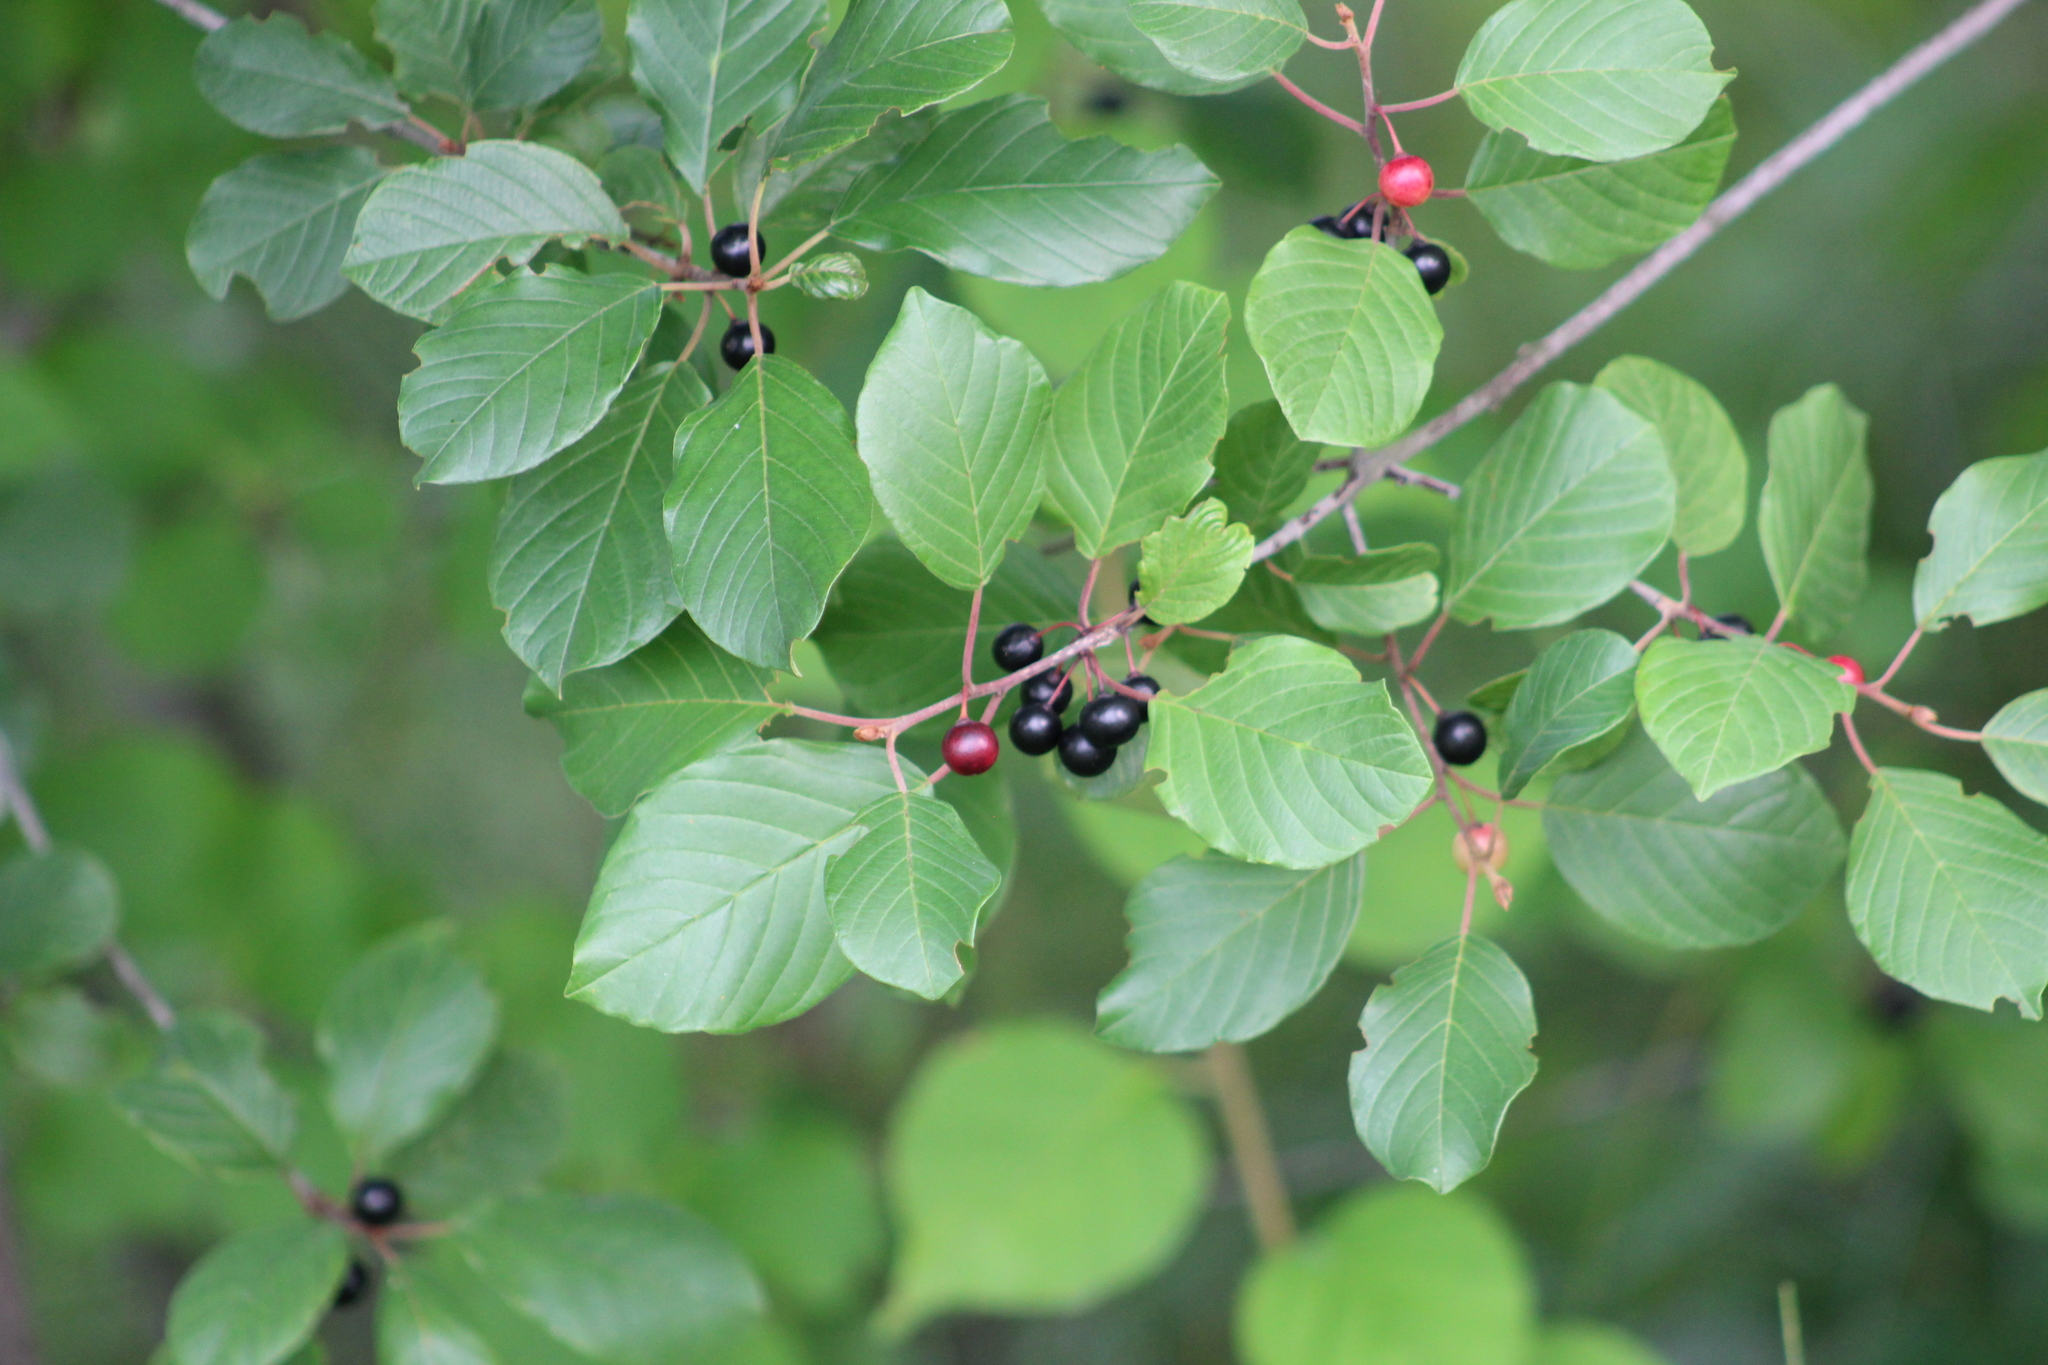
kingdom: Plantae
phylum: Tracheophyta
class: Magnoliopsida
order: Rosales
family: Rhamnaceae
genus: Frangula
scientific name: Frangula alnus
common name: Alder buckthorn
